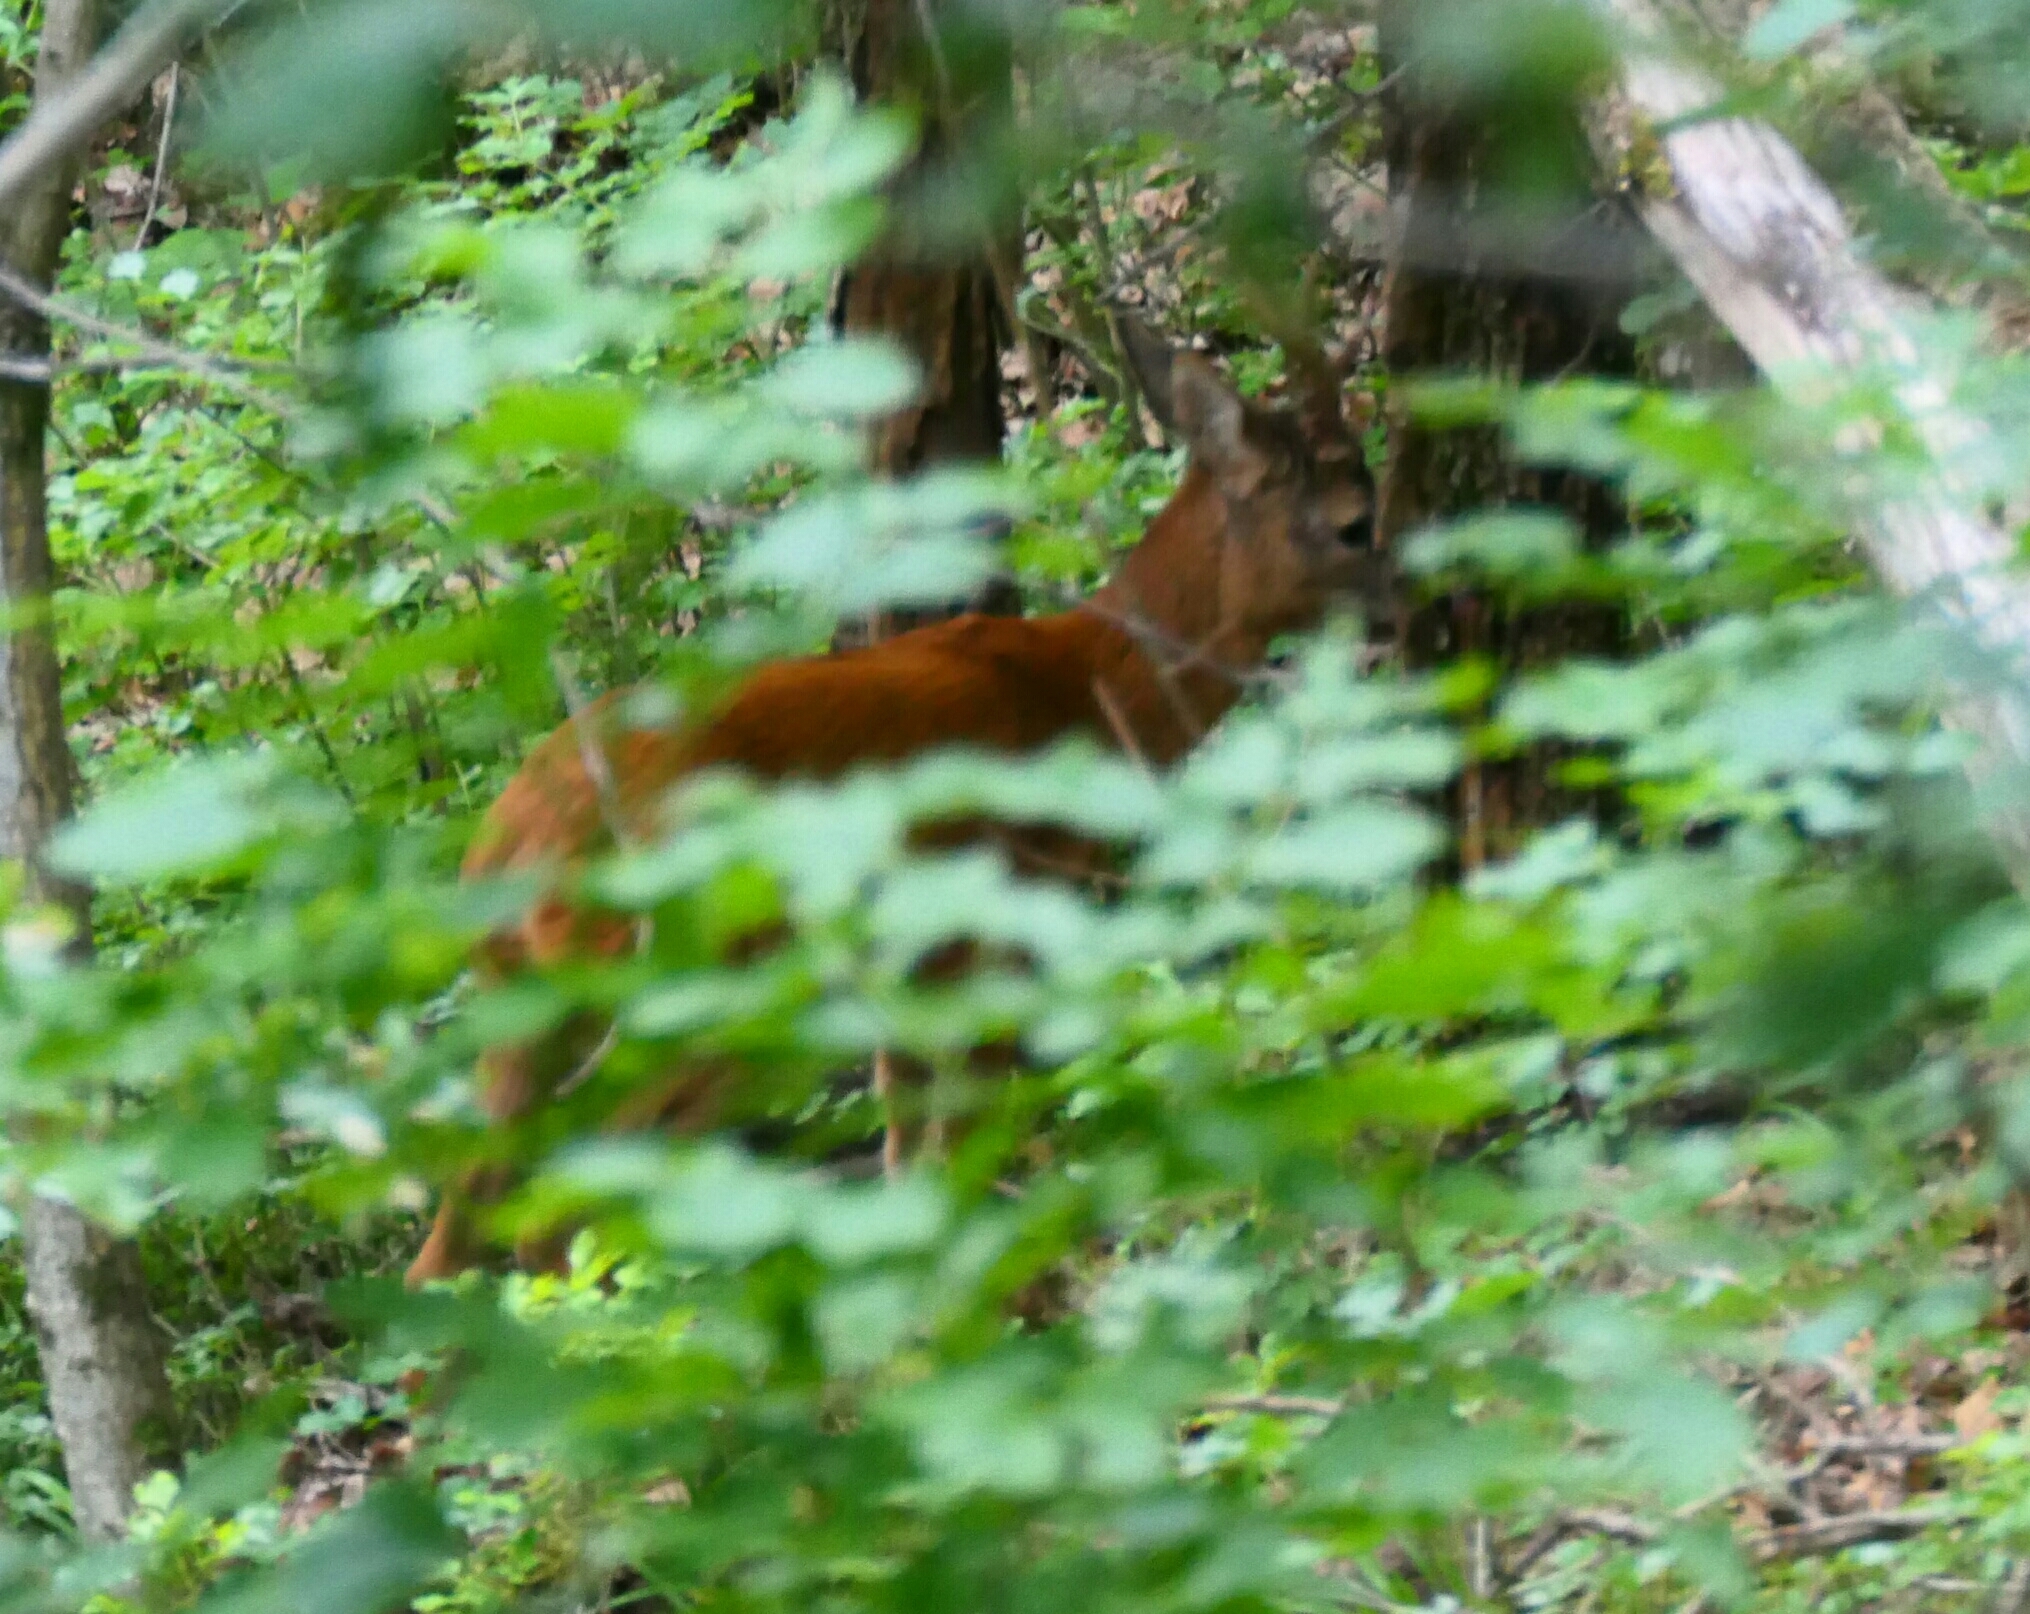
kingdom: Animalia
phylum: Chordata
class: Mammalia
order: Artiodactyla
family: Cervidae
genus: Capreolus
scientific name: Capreolus capreolus
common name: Western roe deer
